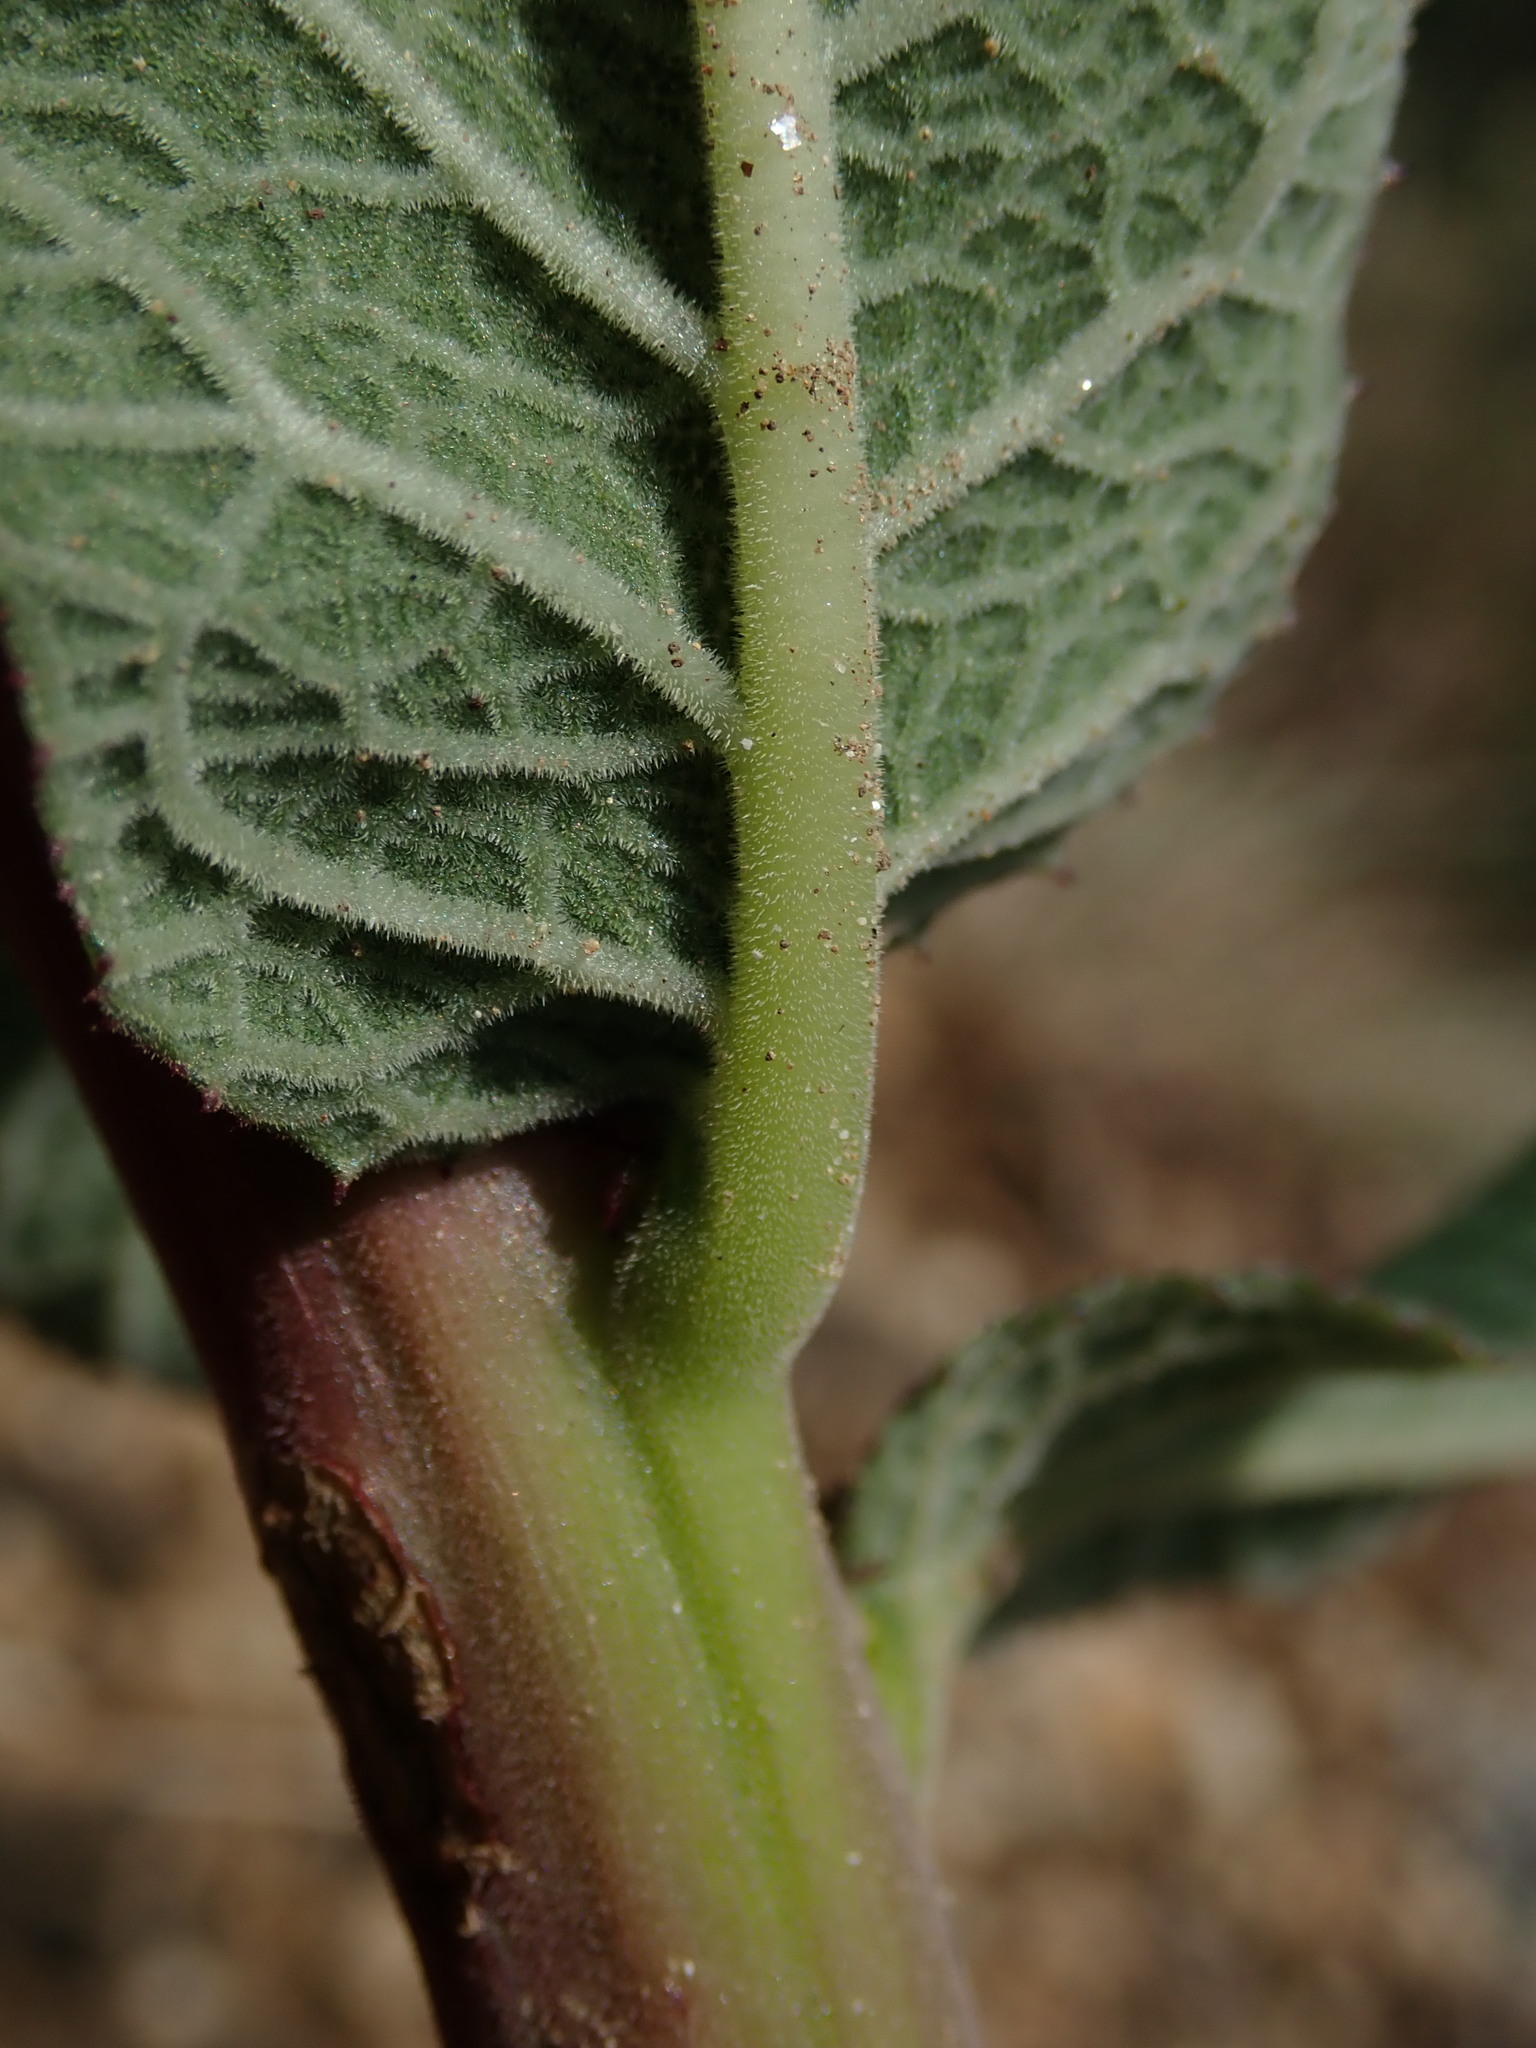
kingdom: Plantae
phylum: Tracheophyta
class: Magnoliopsida
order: Asterales
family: Campanulaceae
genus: Siphocampylus
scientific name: Siphocampylus tupaeformis
